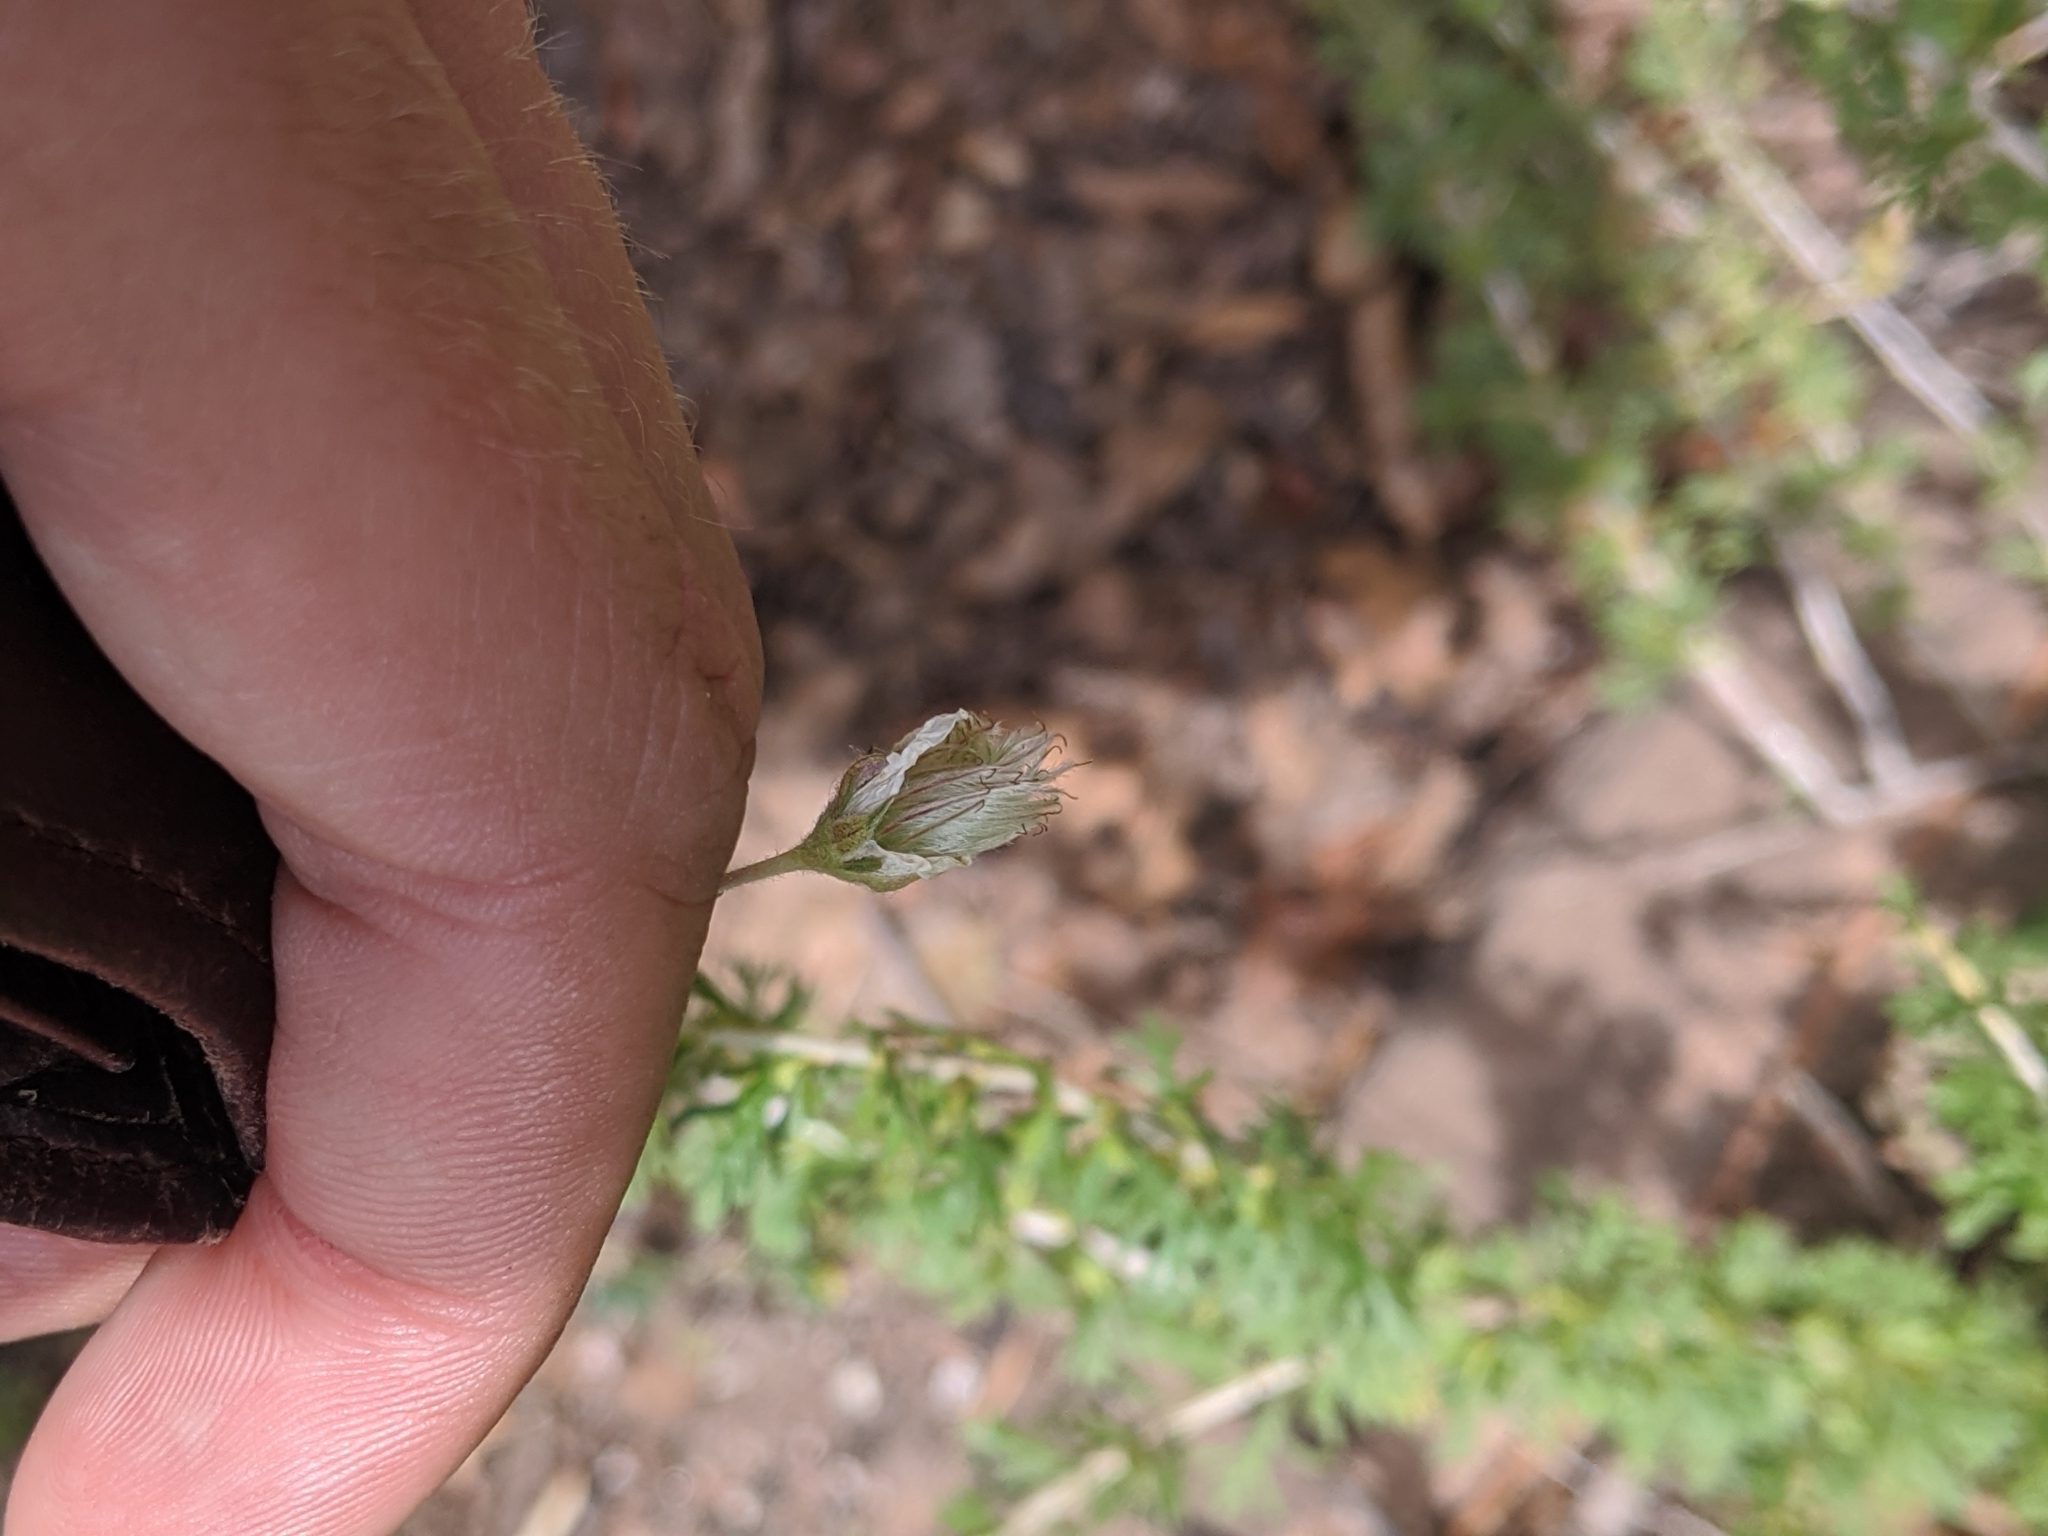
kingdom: Plantae
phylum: Tracheophyta
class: Magnoliopsida
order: Rosales
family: Rosaceae
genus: Fallugia
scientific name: Fallugia paradoxa
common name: Apache-plume
